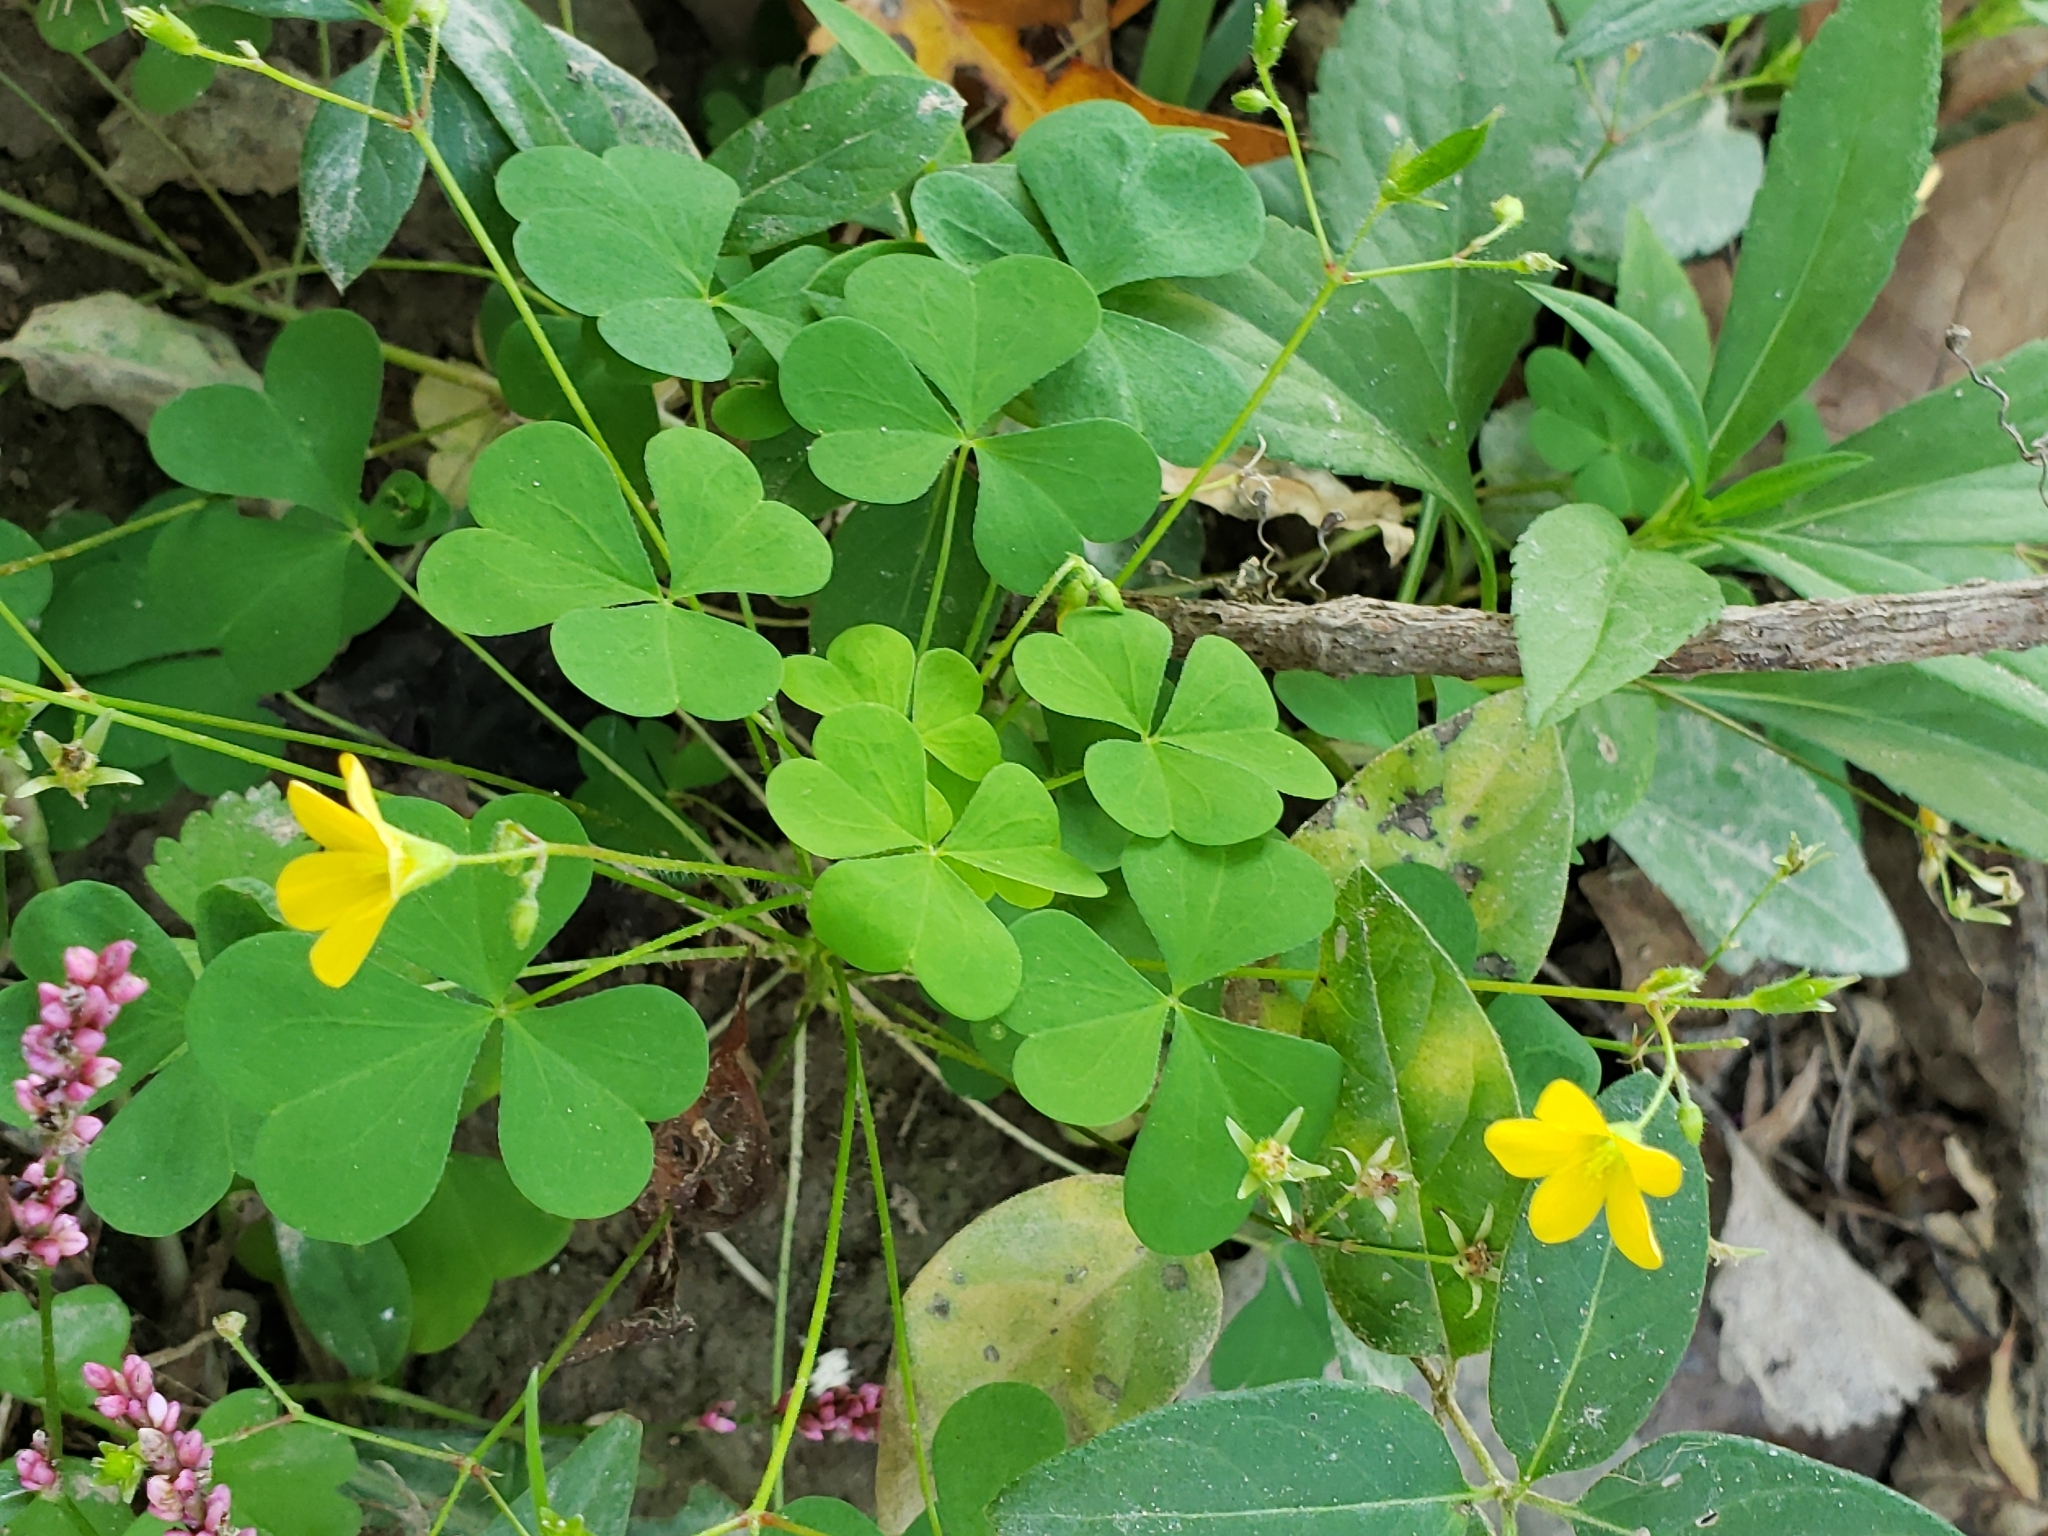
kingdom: Plantae
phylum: Tracheophyta
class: Magnoliopsida
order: Oxalidales
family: Oxalidaceae
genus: Oxalis
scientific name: Oxalis stricta
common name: Upright yellow-sorrel
